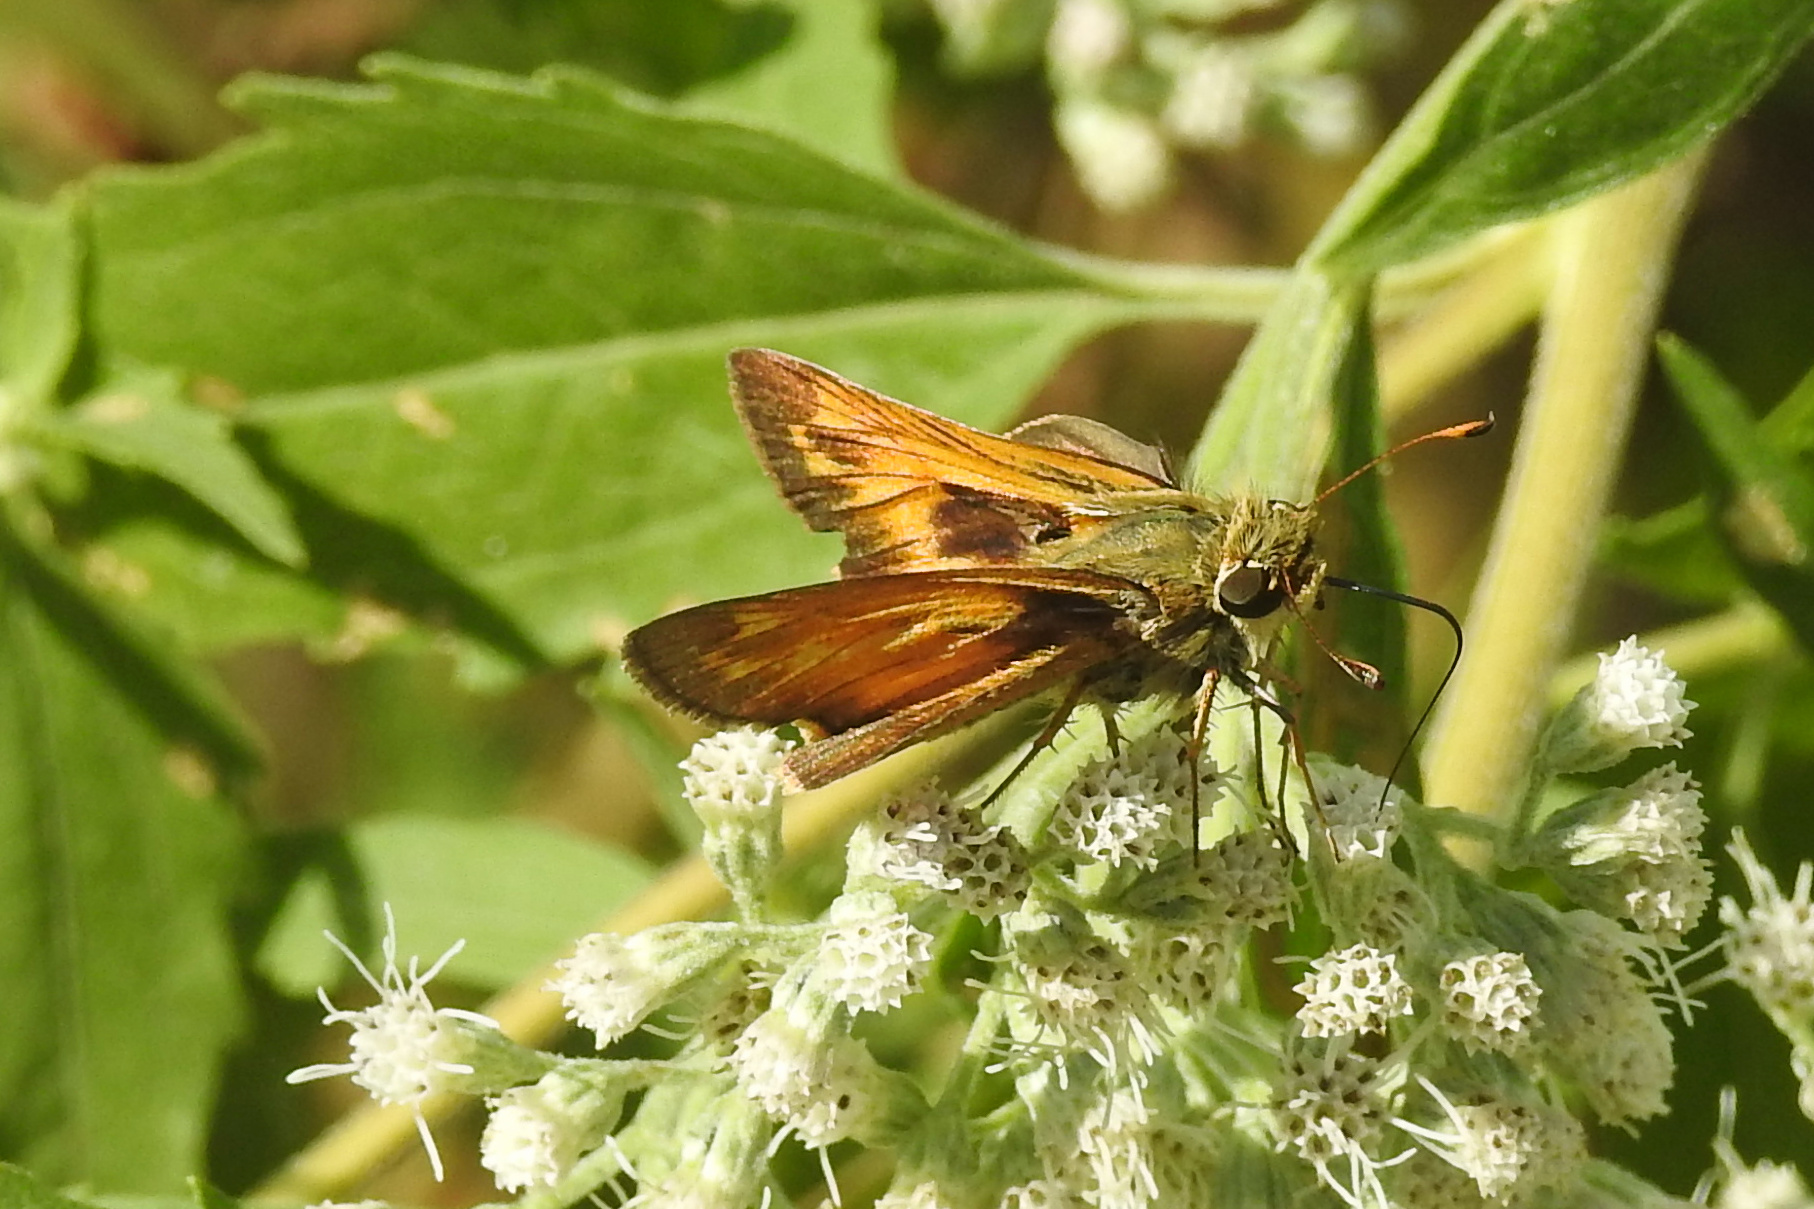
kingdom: Animalia
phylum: Arthropoda
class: Insecta
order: Lepidoptera
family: Hesperiidae
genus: Atalopedes
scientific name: Atalopedes
